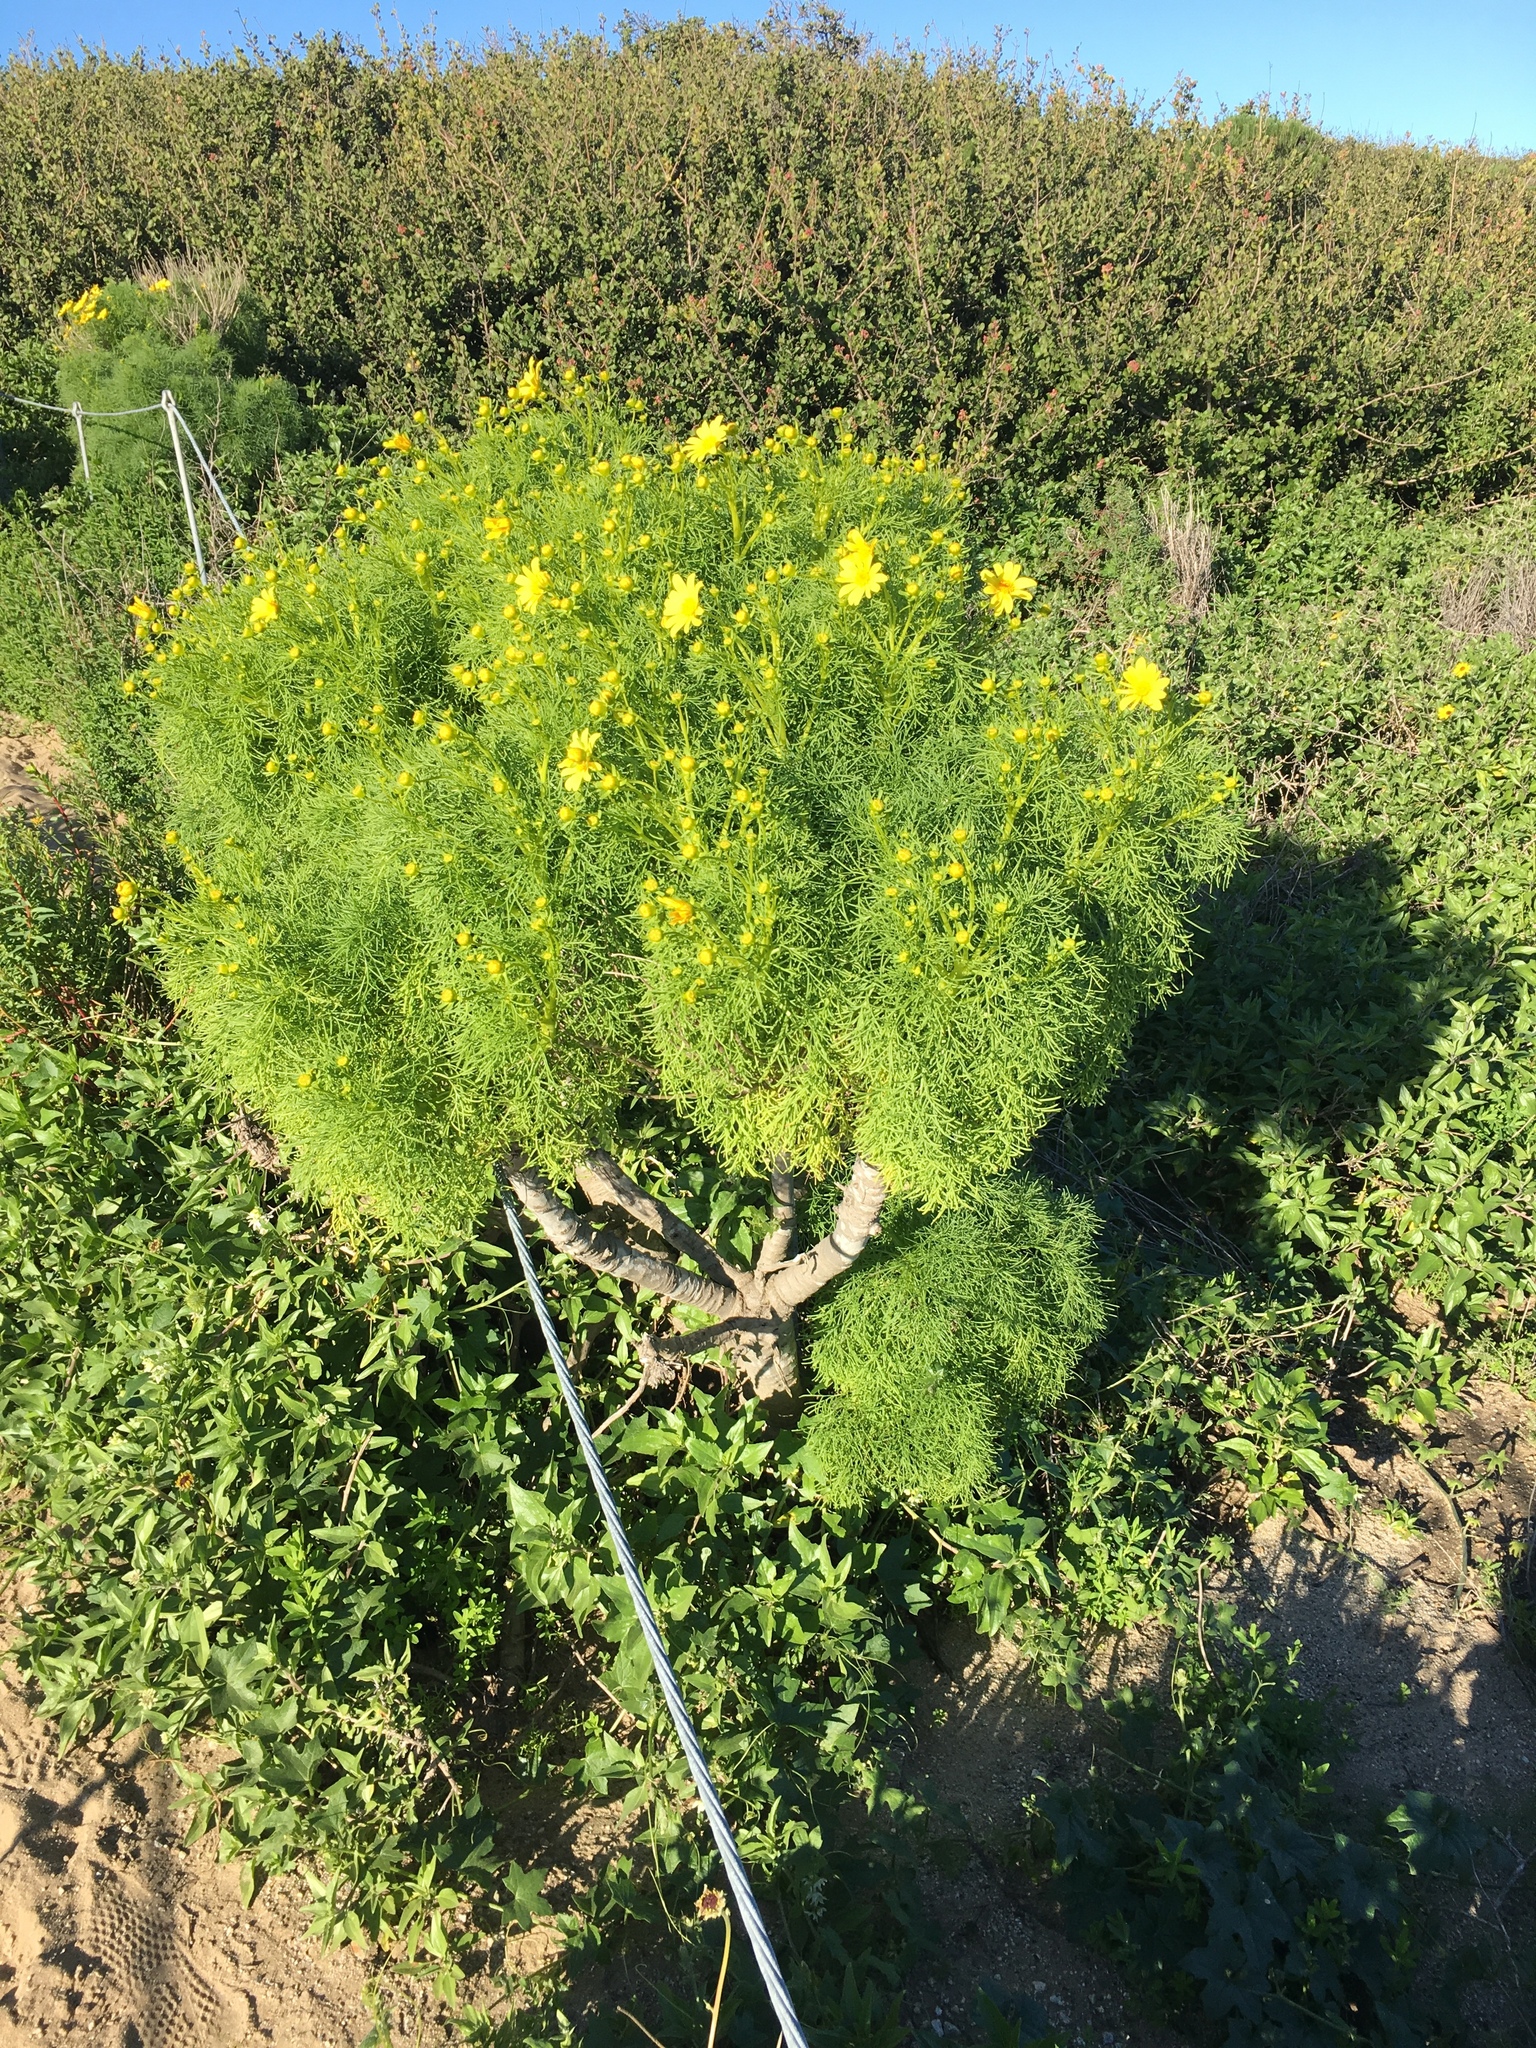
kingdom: Plantae
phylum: Tracheophyta
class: Magnoliopsida
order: Asterales
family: Asteraceae
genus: Coreopsis
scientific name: Coreopsis gigantea
